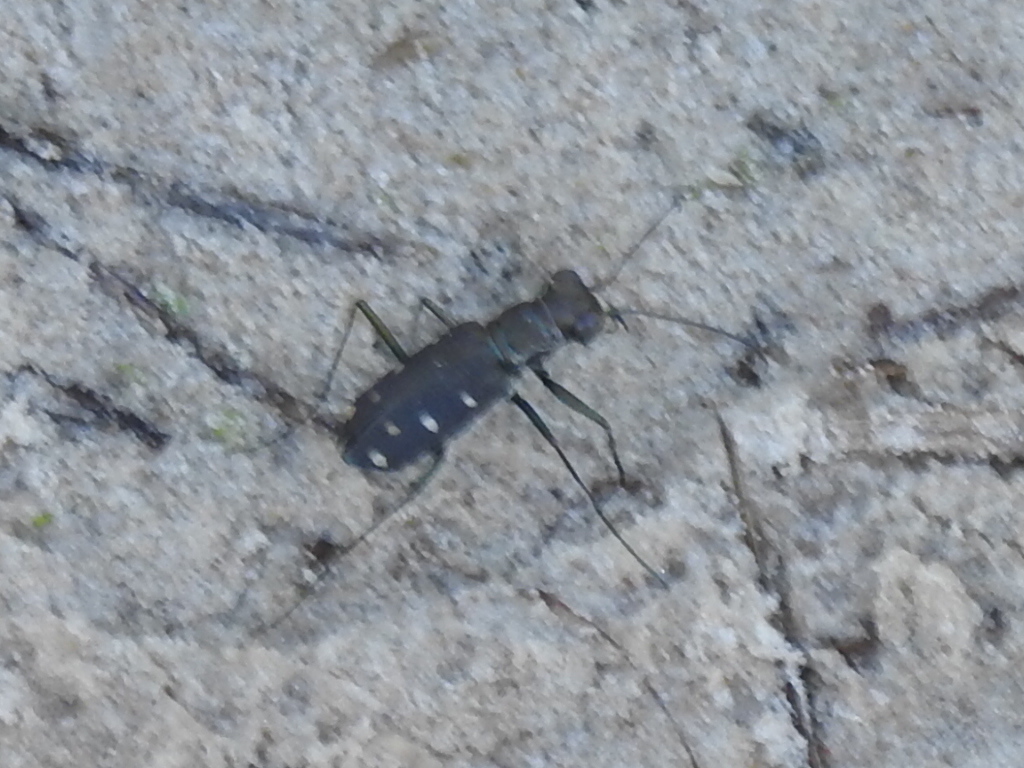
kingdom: Animalia
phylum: Arthropoda
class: Insecta
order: Coleoptera
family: Carabidae
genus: Cicindela
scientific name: Cicindela ocellata
